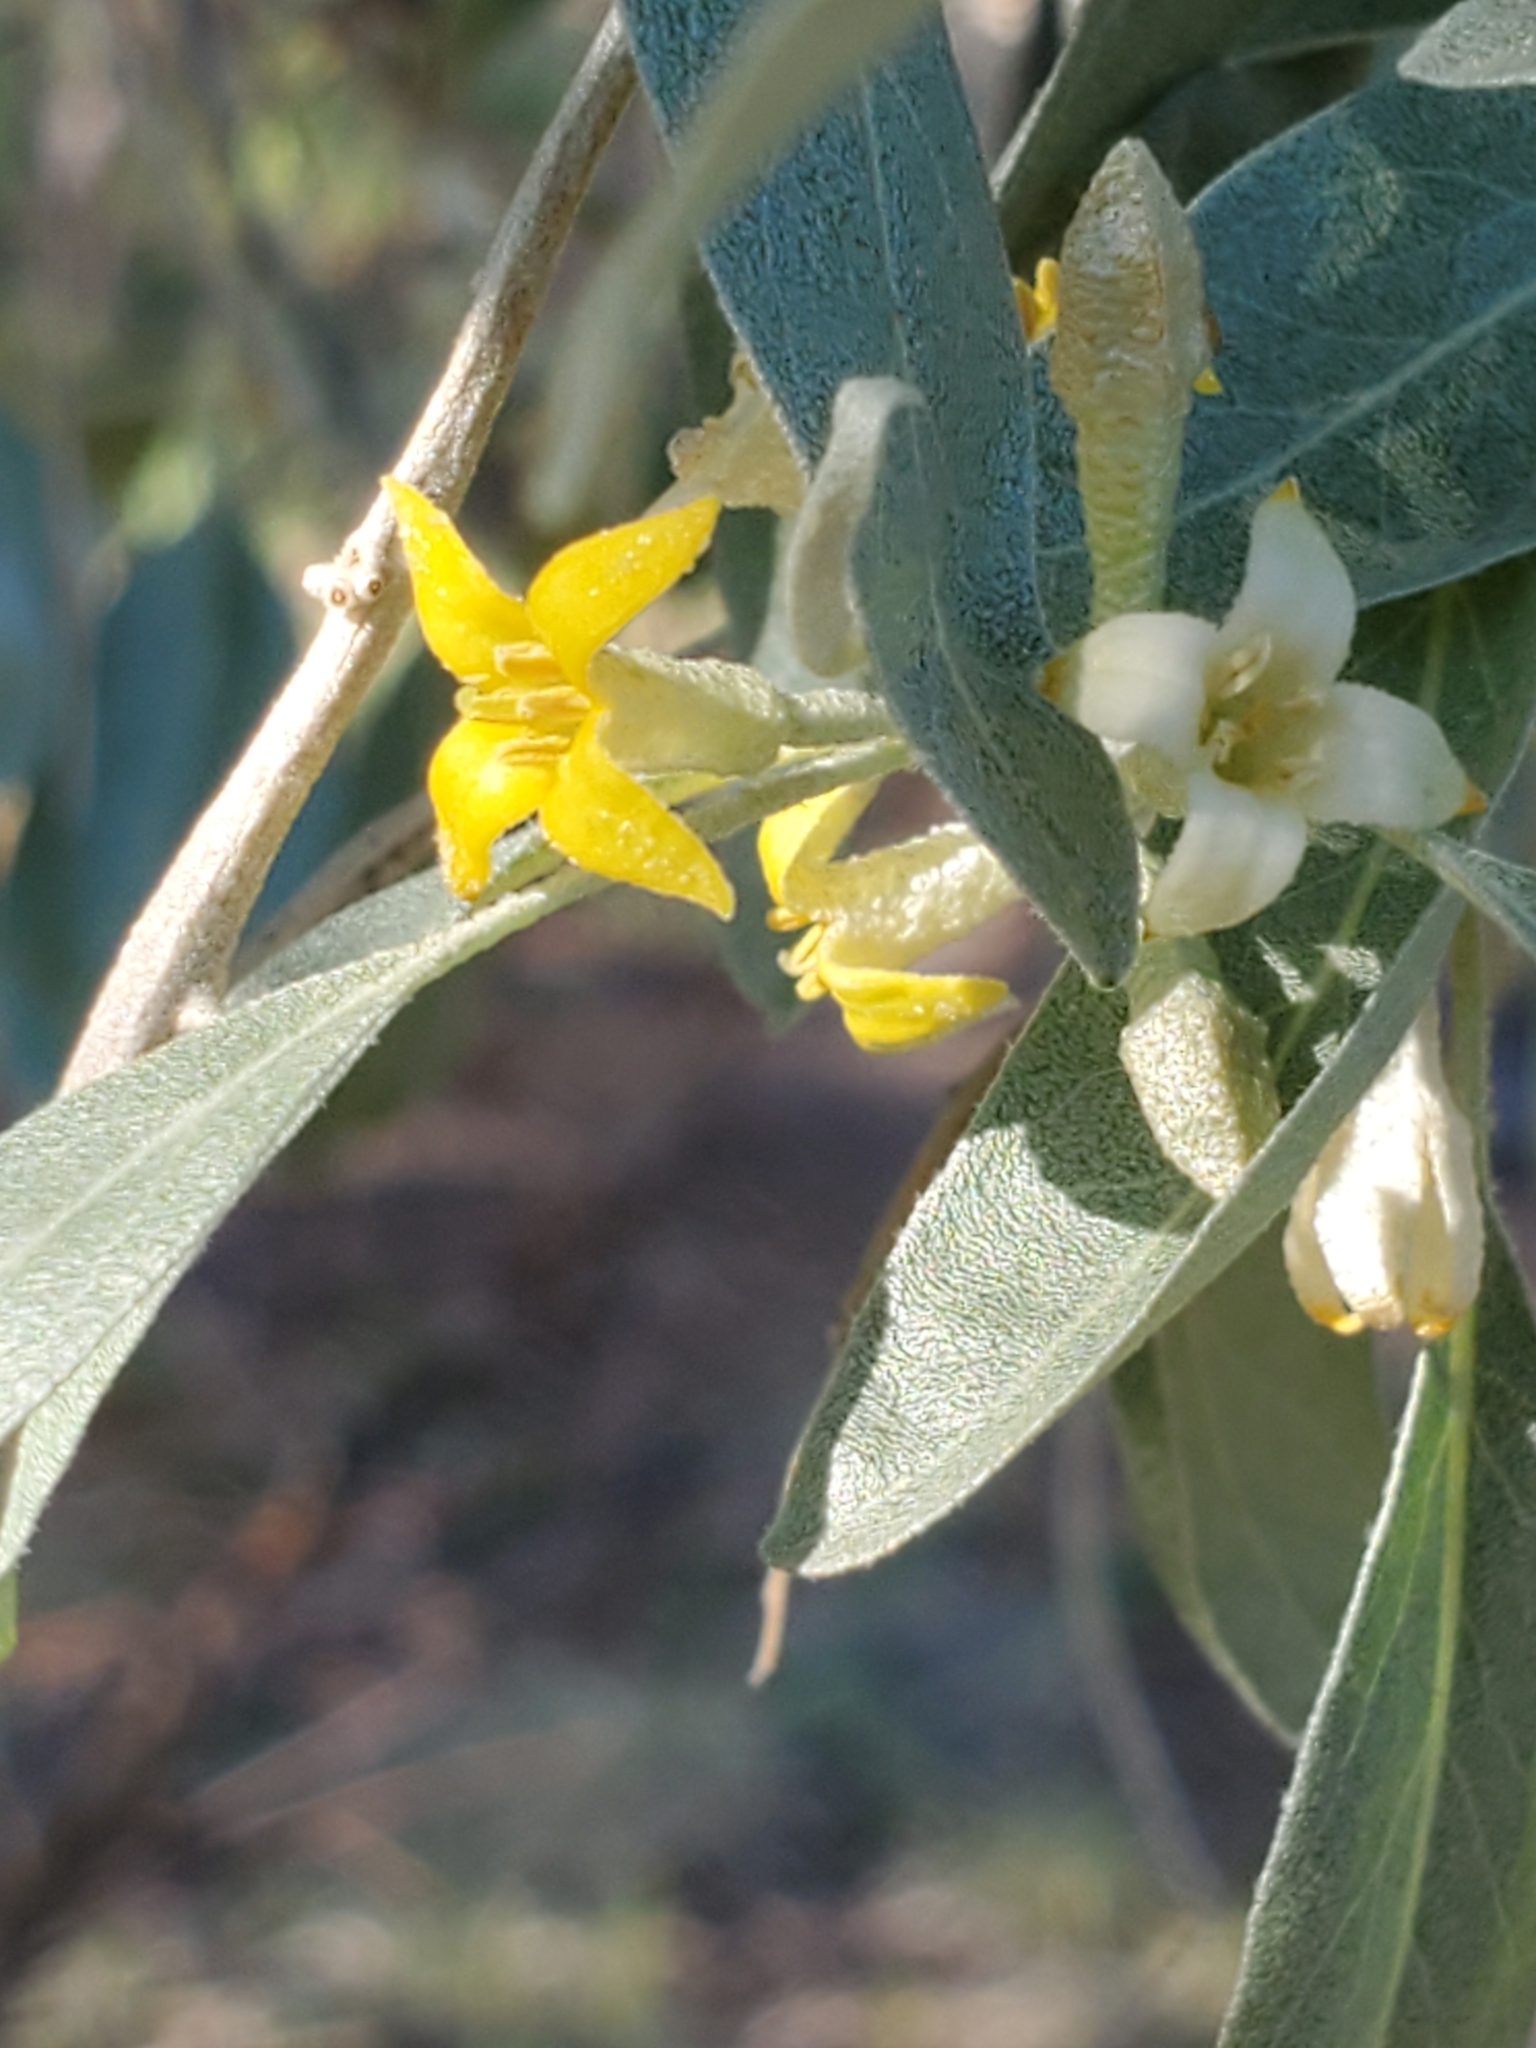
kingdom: Plantae
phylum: Tracheophyta
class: Magnoliopsida
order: Rosales
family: Elaeagnaceae
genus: Elaeagnus
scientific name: Elaeagnus angustifolia
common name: Russian olive
